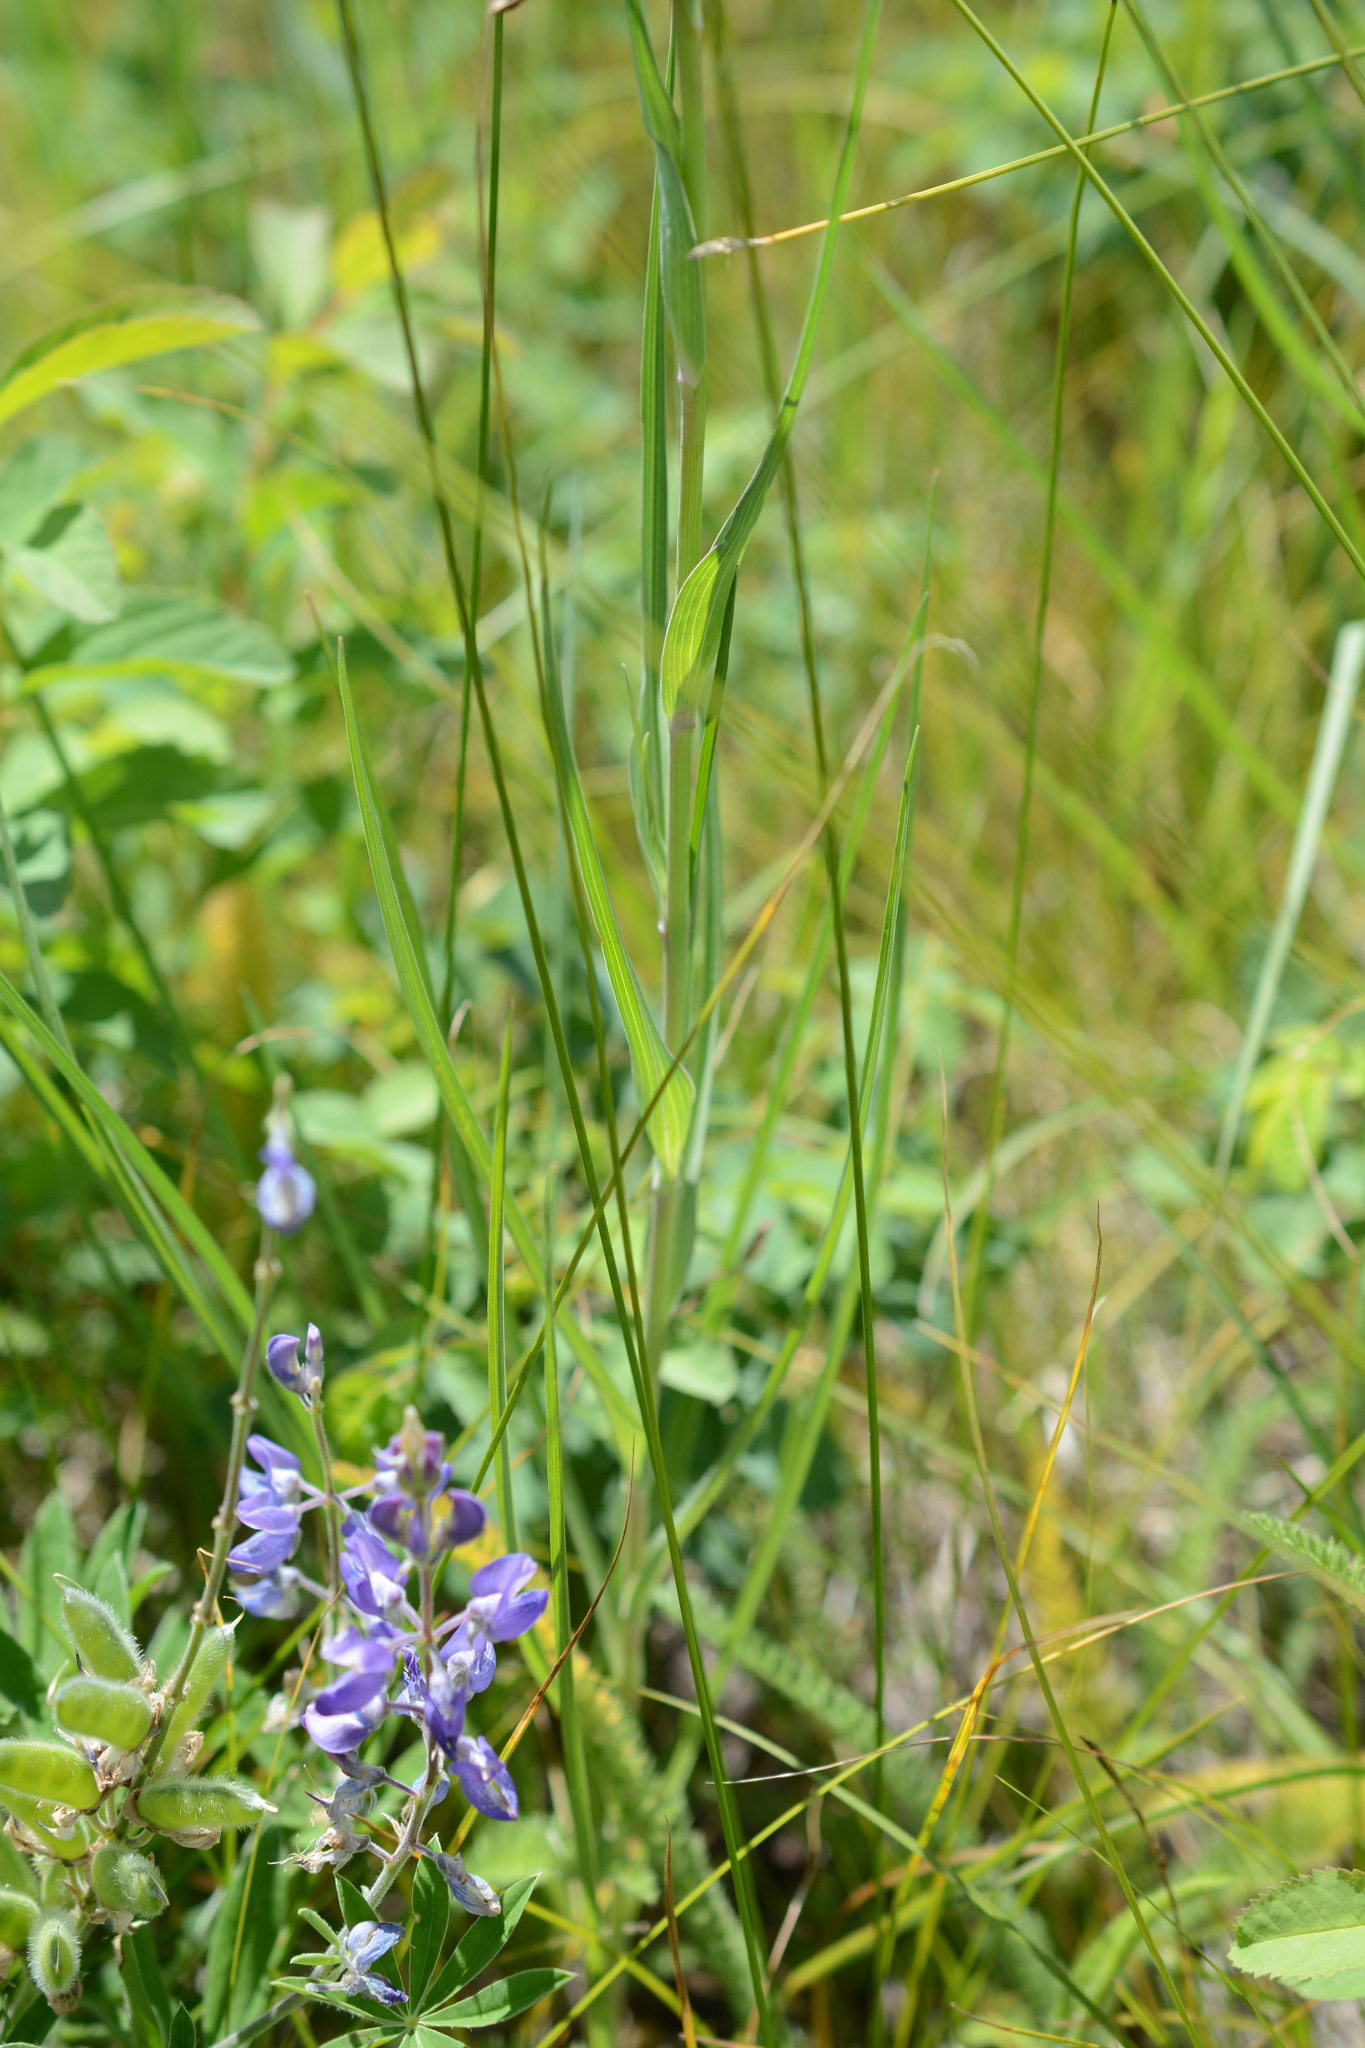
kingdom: Plantae
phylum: Tracheophyta
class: Magnoliopsida
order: Asterales
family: Asteraceae
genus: Tragopogon
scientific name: Tragopogon dubius
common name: Yellow salsify
